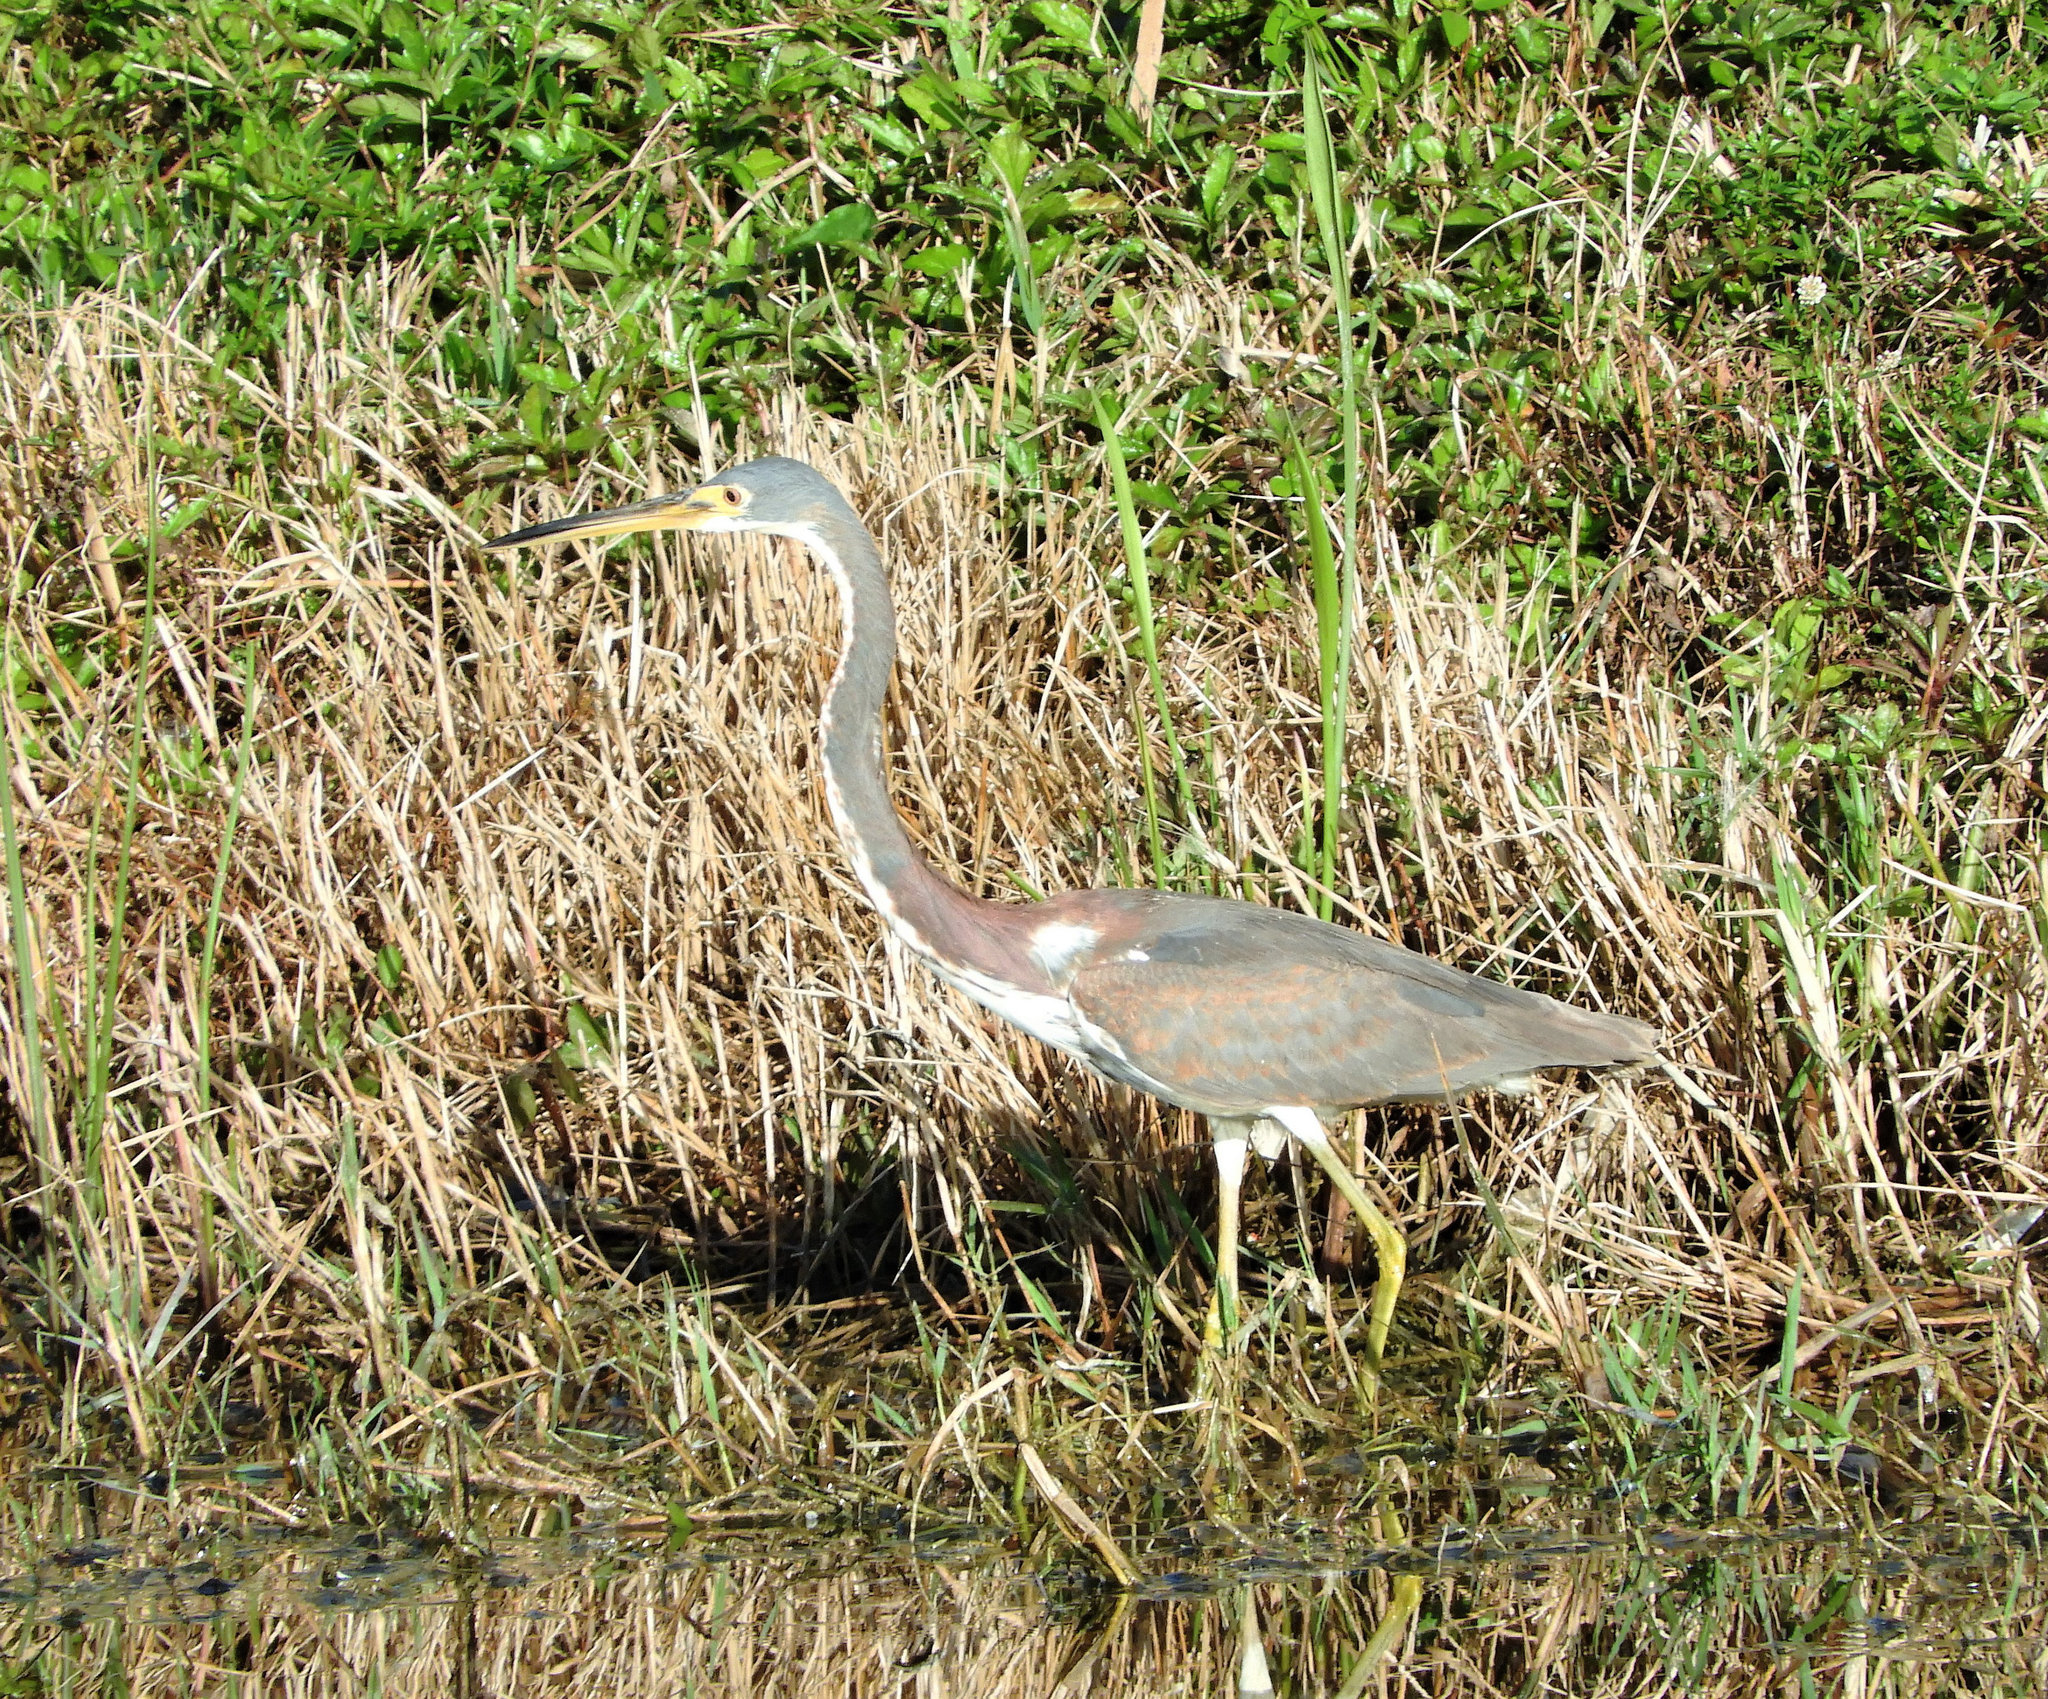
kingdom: Animalia
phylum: Chordata
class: Aves
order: Pelecaniformes
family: Ardeidae
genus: Egretta
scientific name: Egretta tricolor
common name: Tricolored heron
